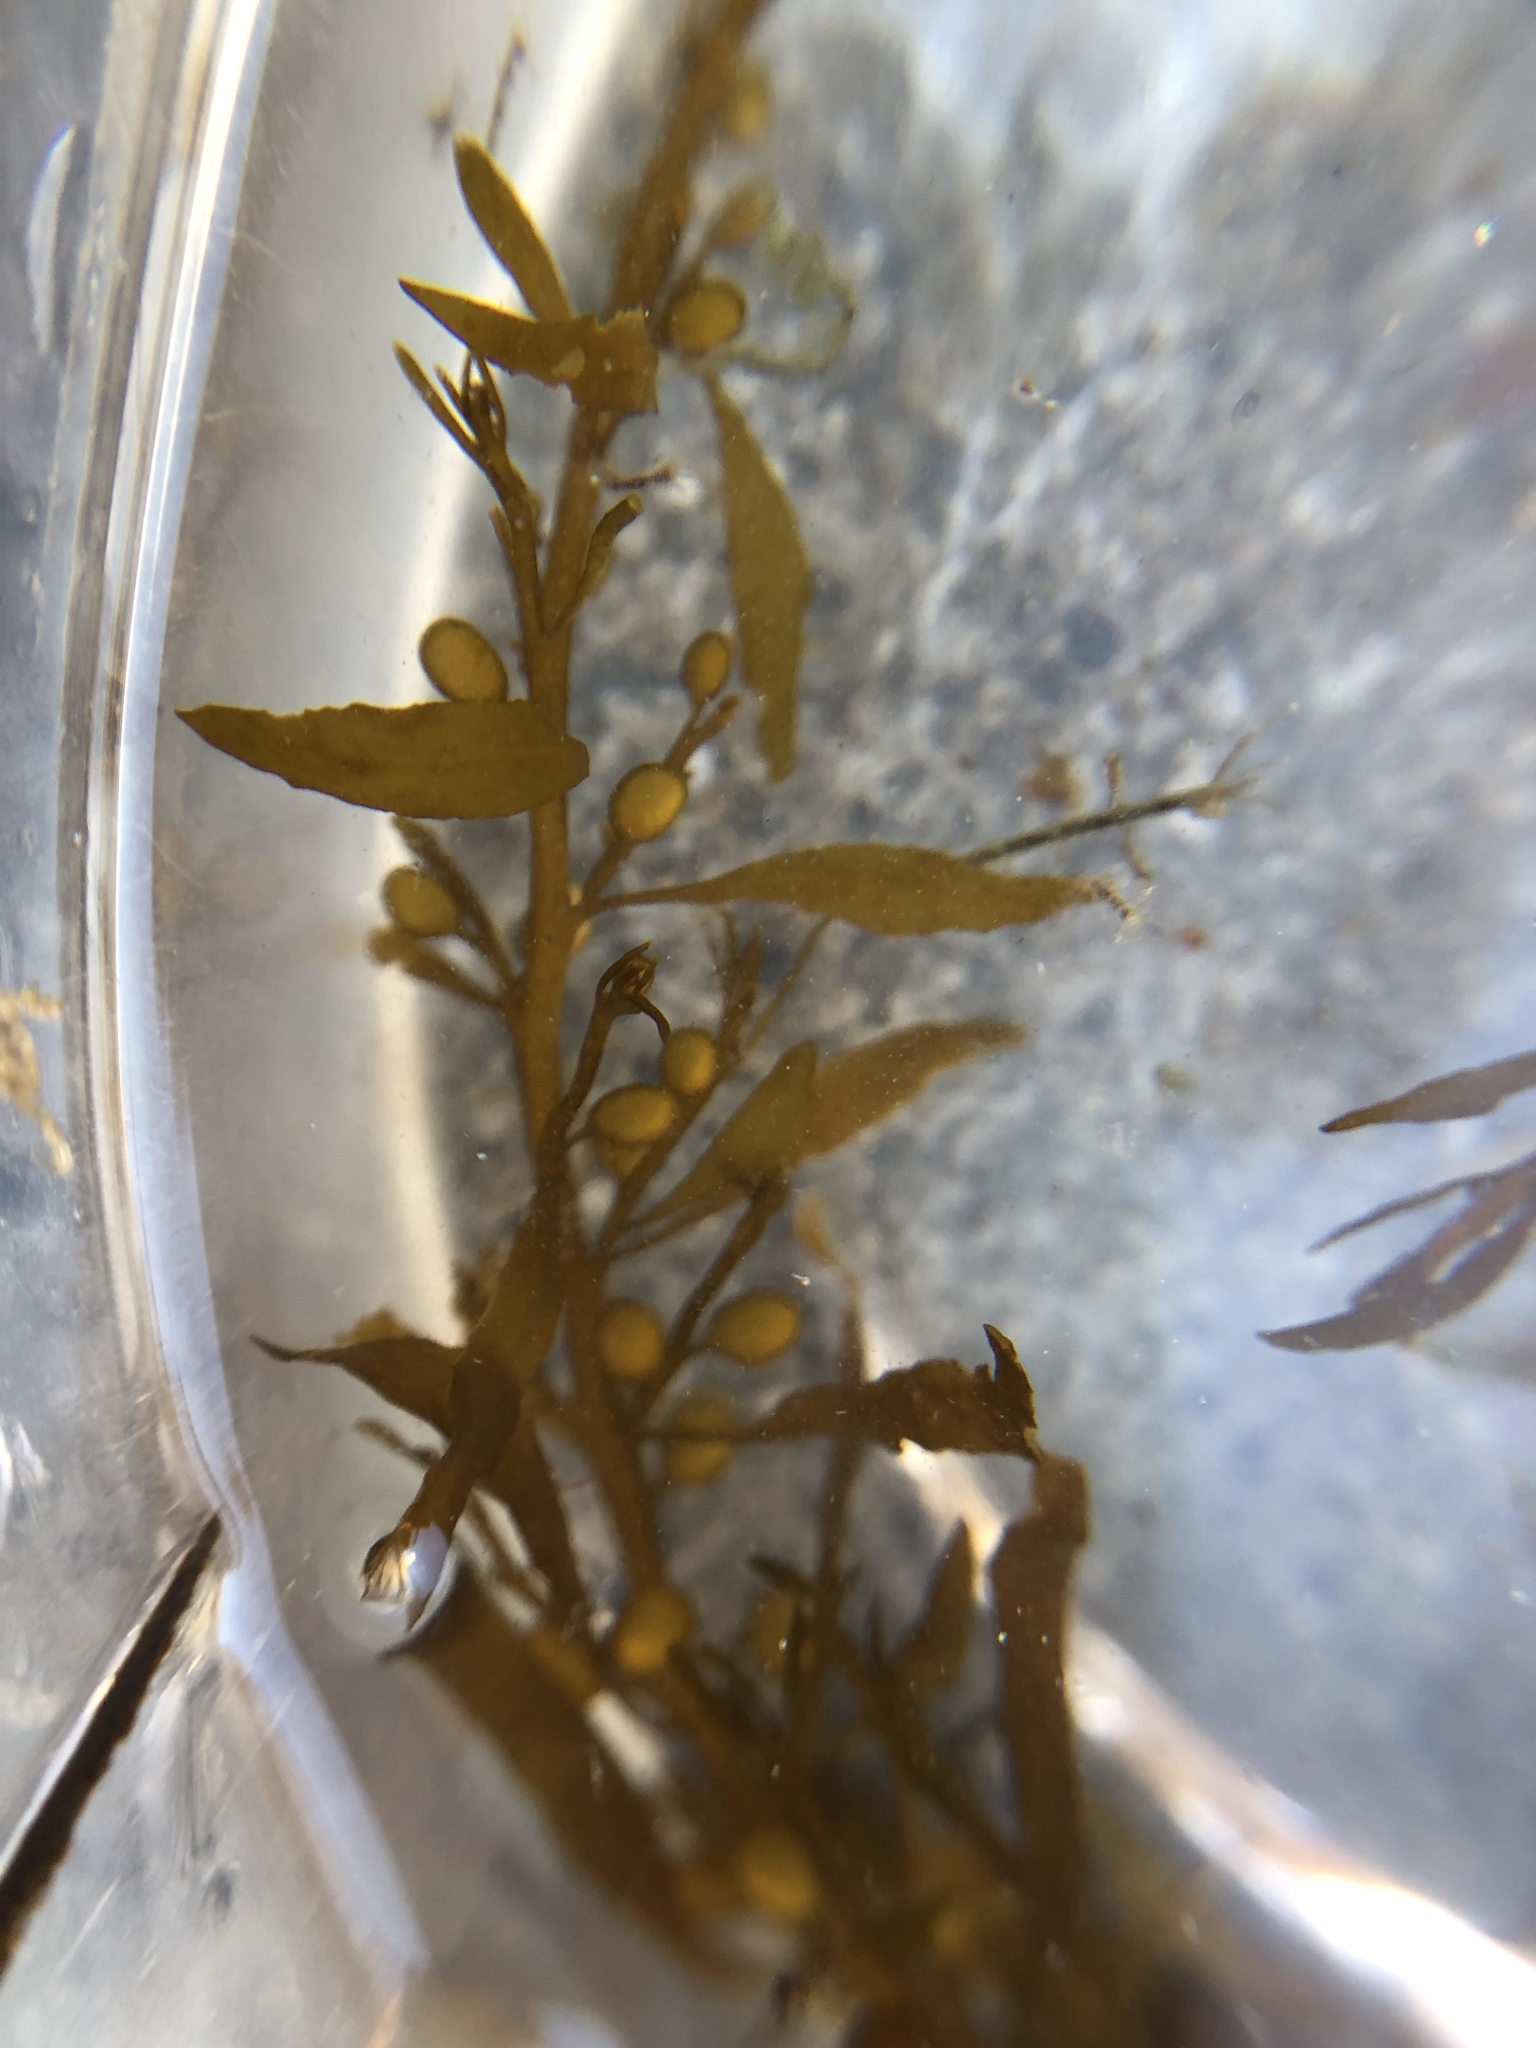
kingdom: Chromista
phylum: Ochrophyta
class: Phaeophyceae
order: Fucales
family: Sargassaceae
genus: Sargassum
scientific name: Sargassum muticum
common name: Japweed
